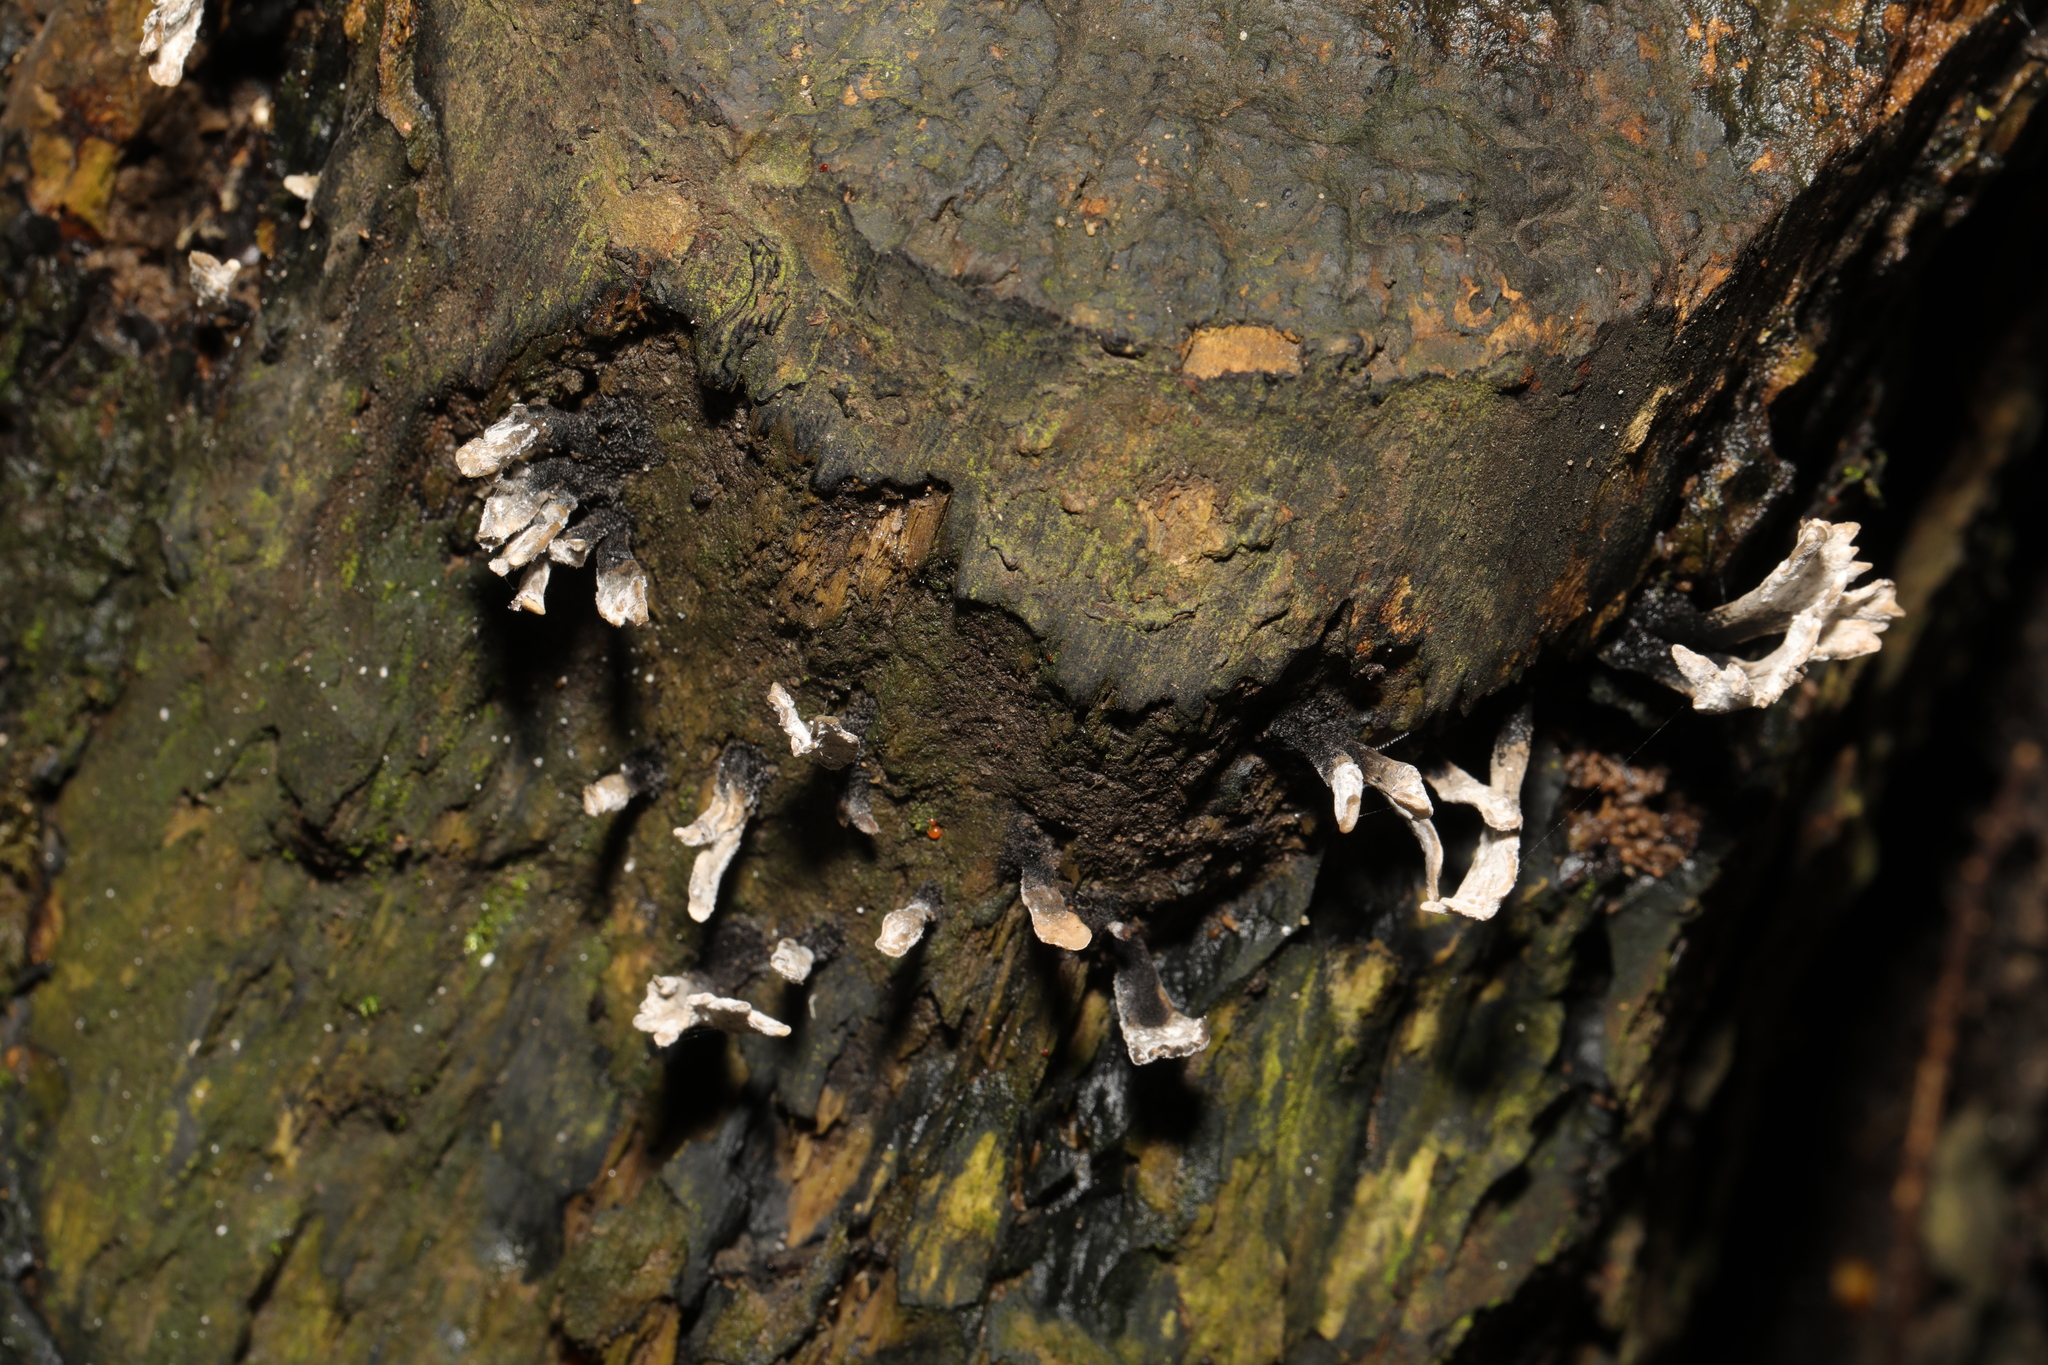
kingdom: Fungi
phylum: Ascomycota
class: Sordariomycetes
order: Xylariales
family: Xylariaceae
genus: Xylaria
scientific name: Xylaria hypoxylon
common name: Candle-snuff fungus
